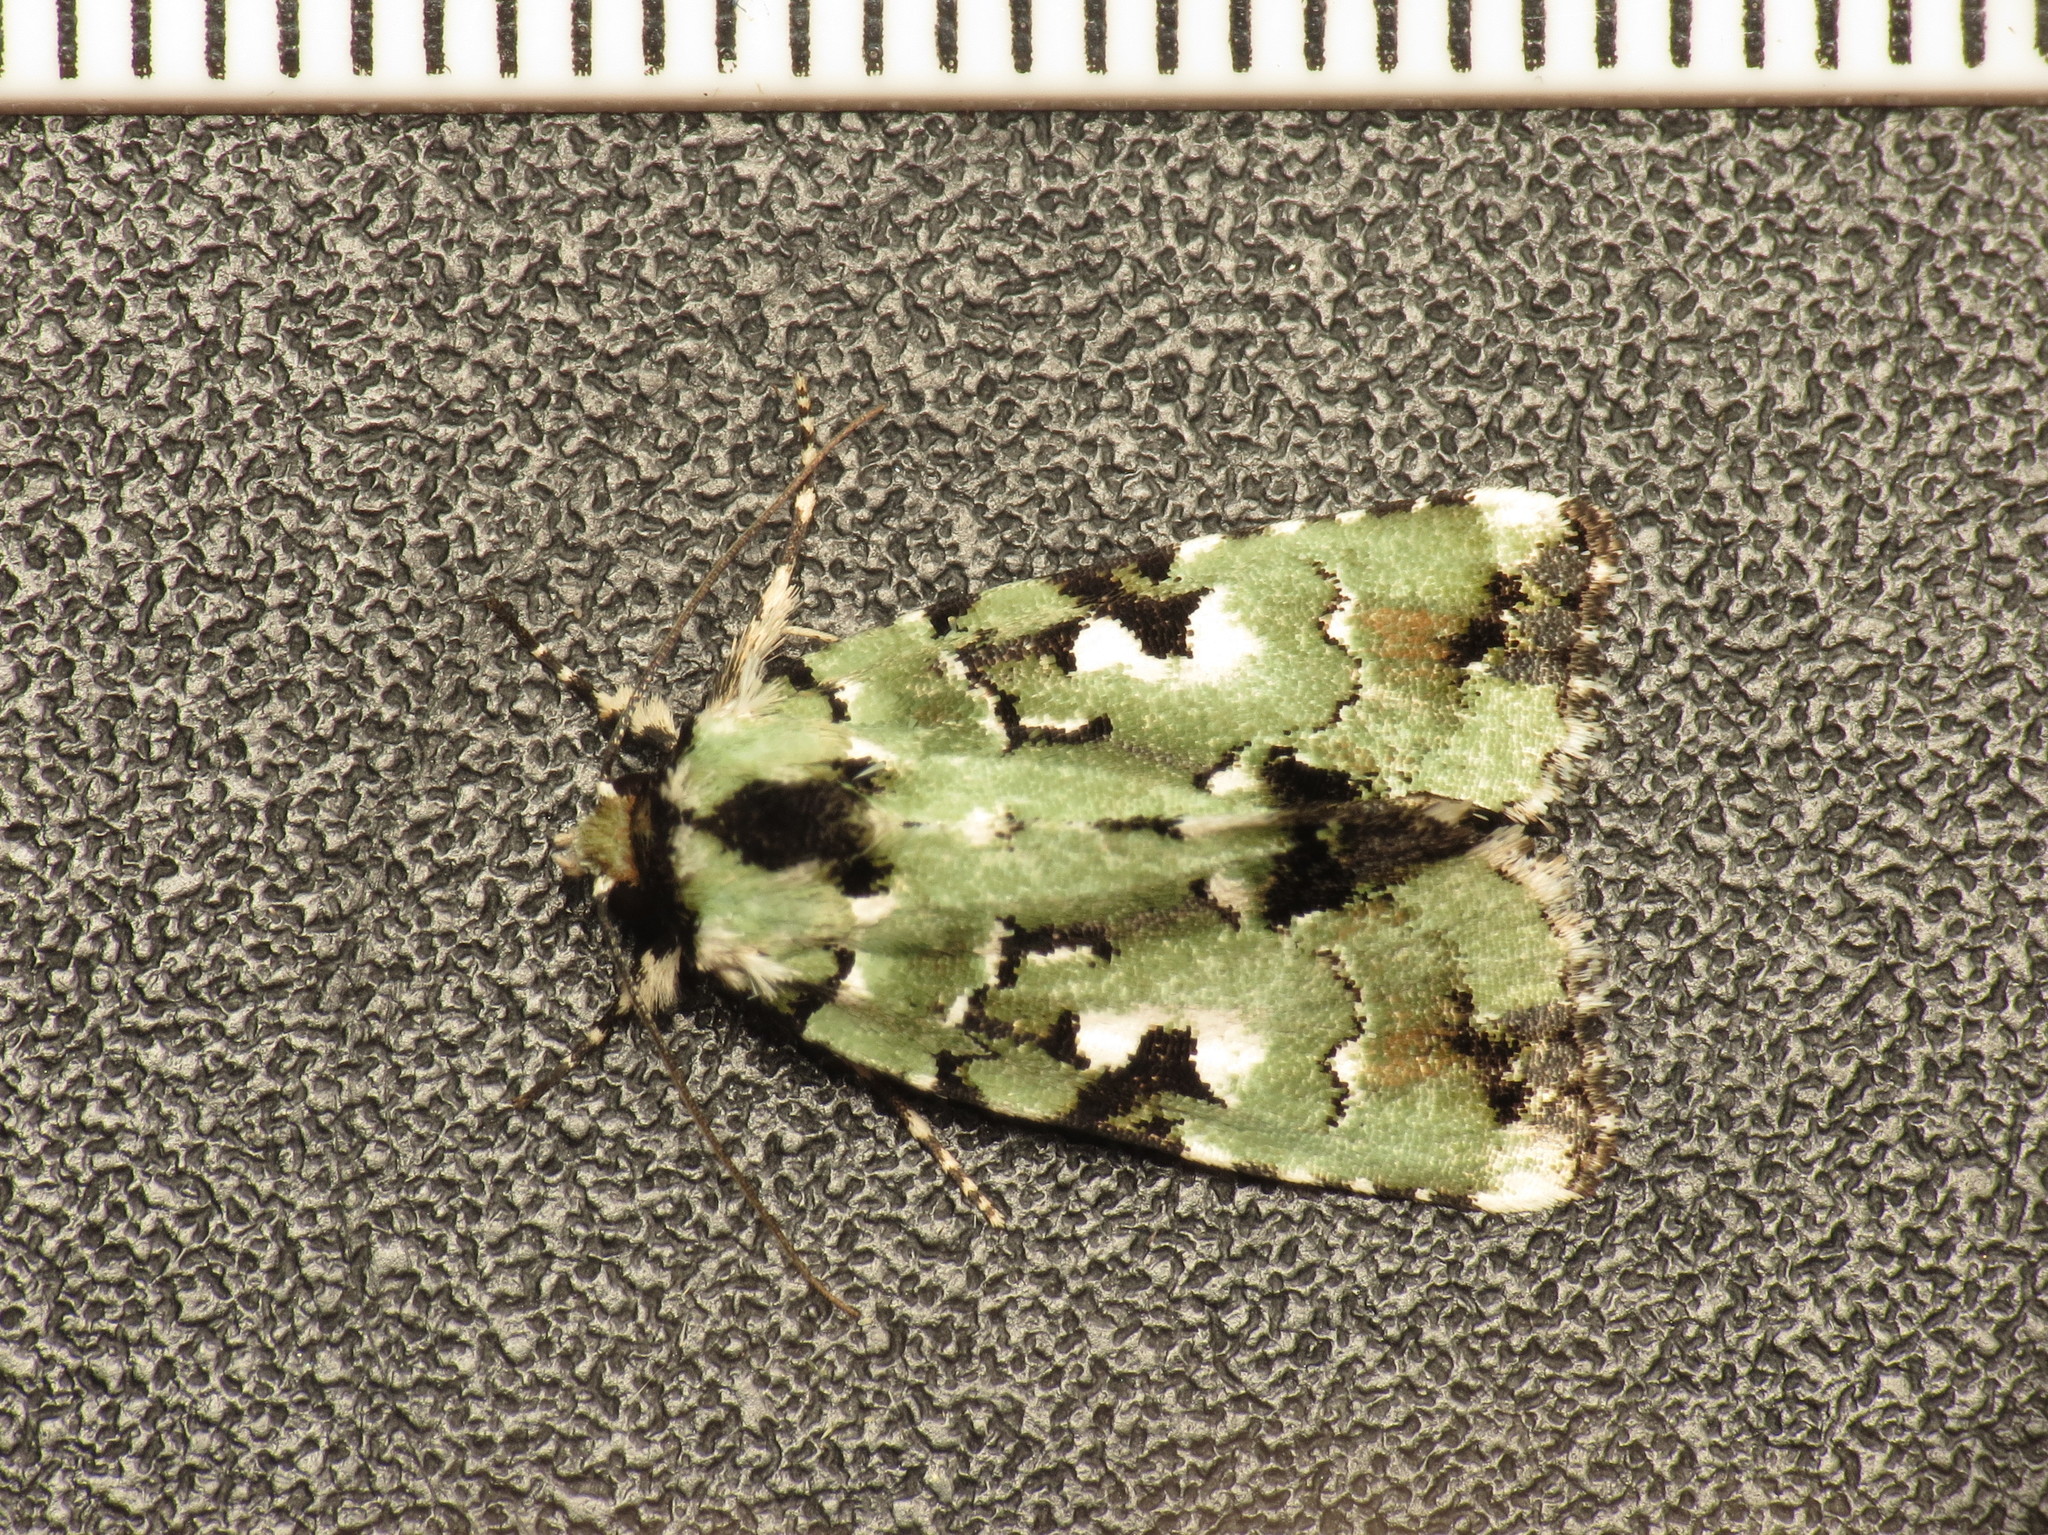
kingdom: Animalia
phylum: Arthropoda
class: Insecta
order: Lepidoptera
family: Noctuidae
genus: Epicyrtica
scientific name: Epicyrtica metallica
